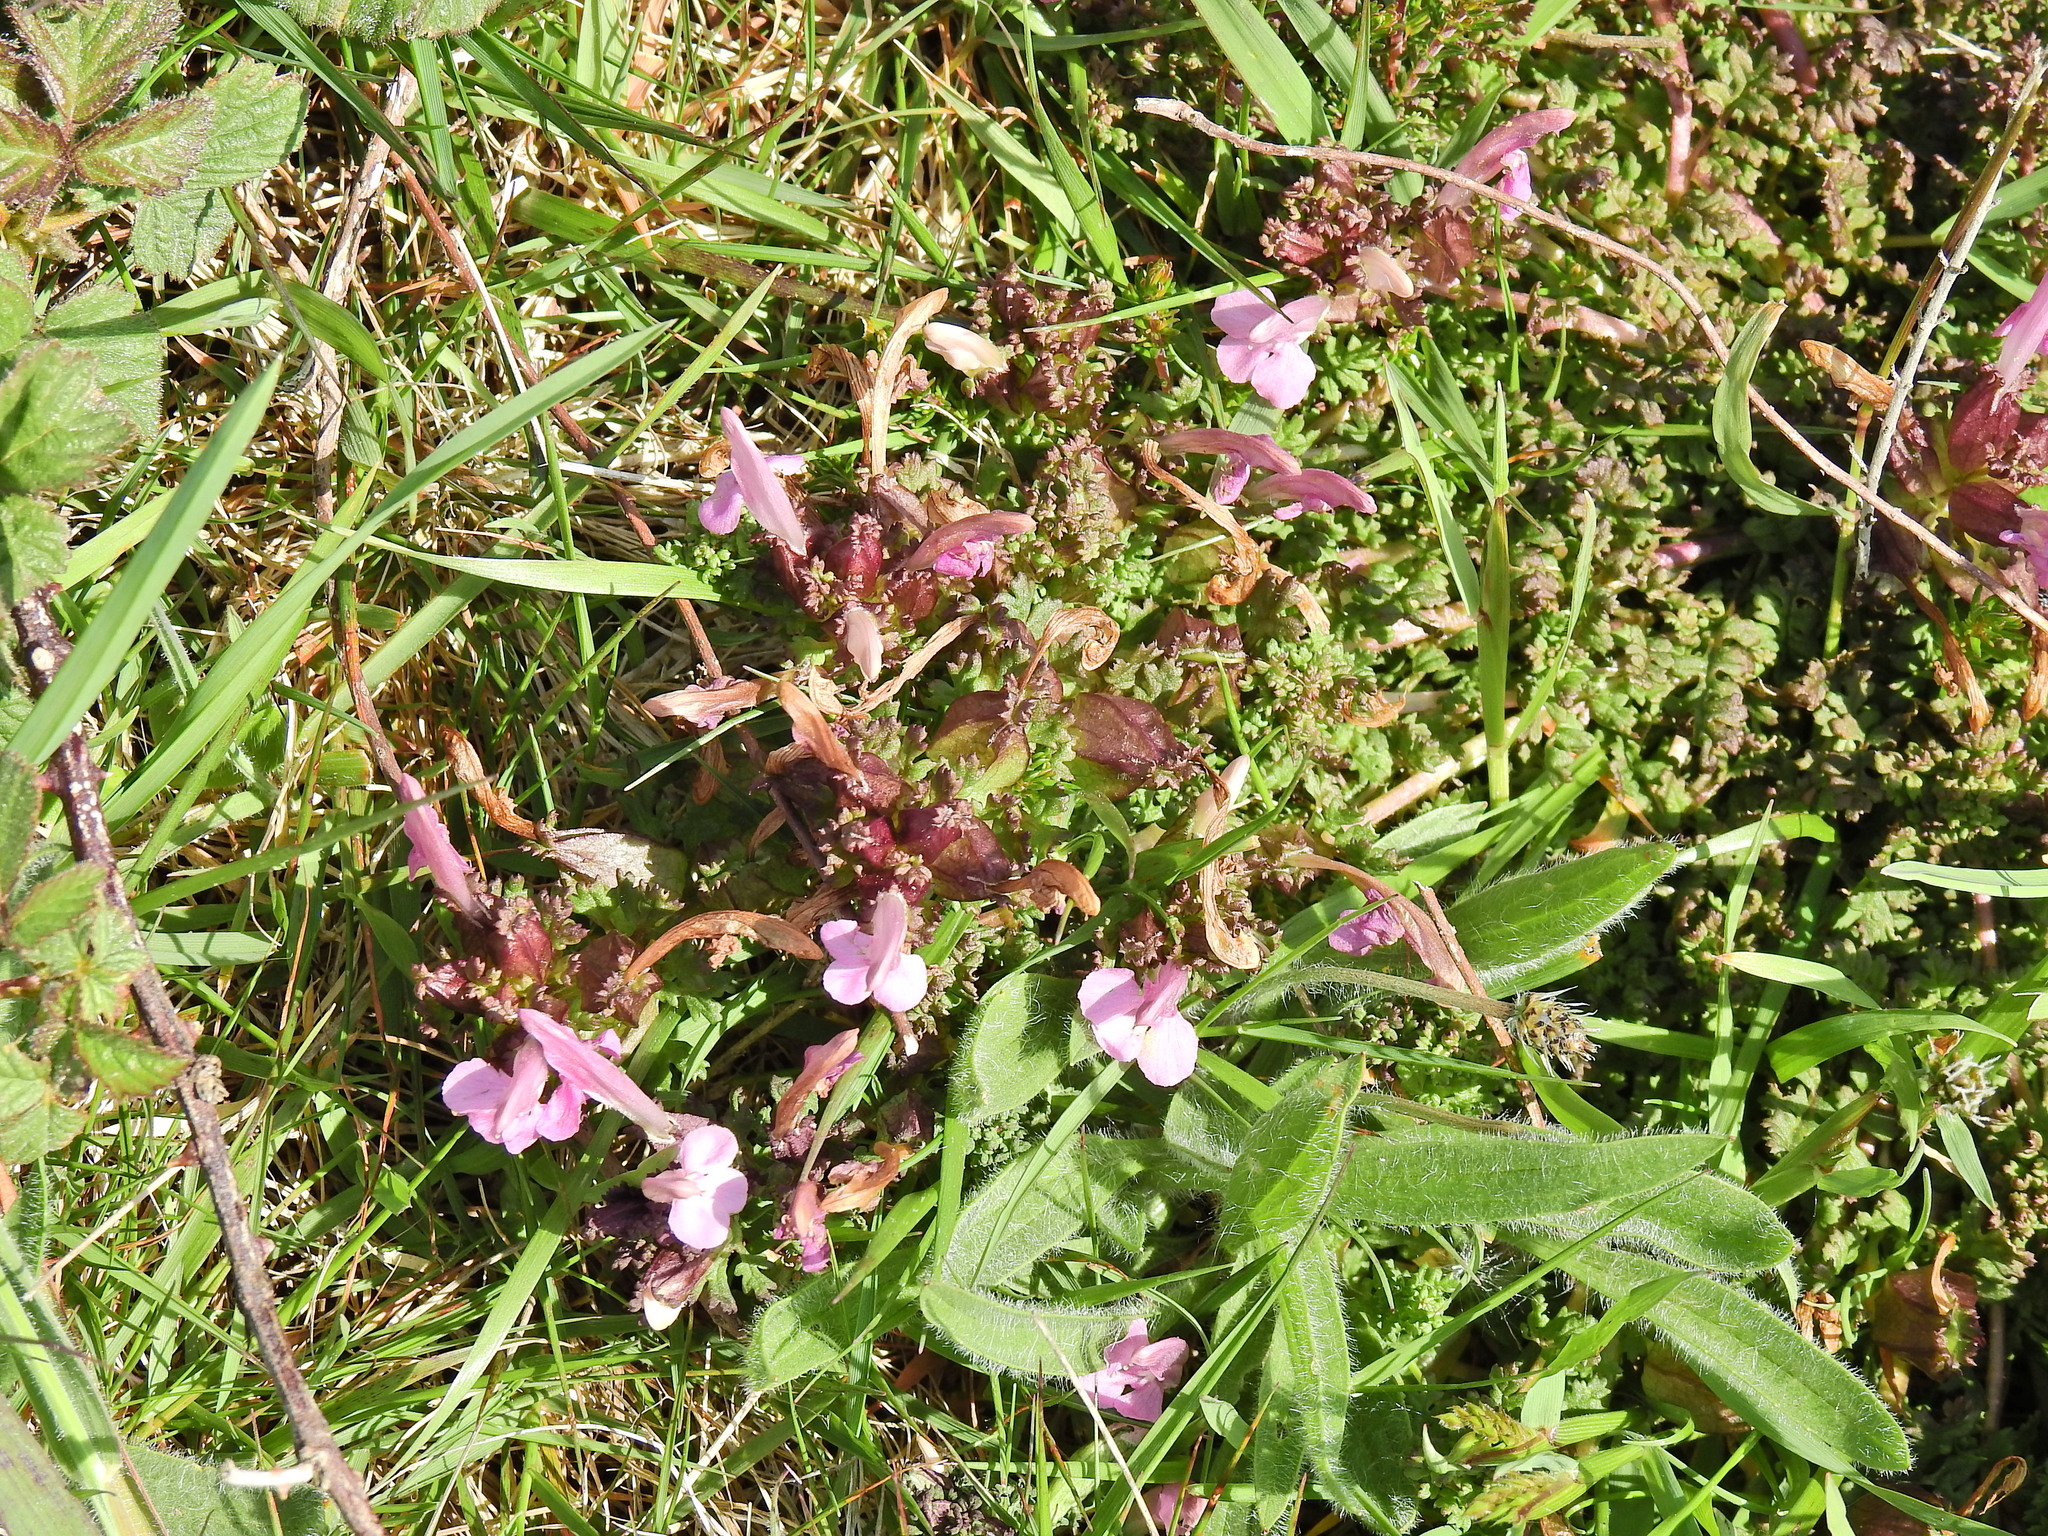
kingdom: Plantae
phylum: Tracheophyta
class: Magnoliopsida
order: Lamiales
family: Orobanchaceae
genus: Pedicularis
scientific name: Pedicularis sylvatica
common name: Lousewort
